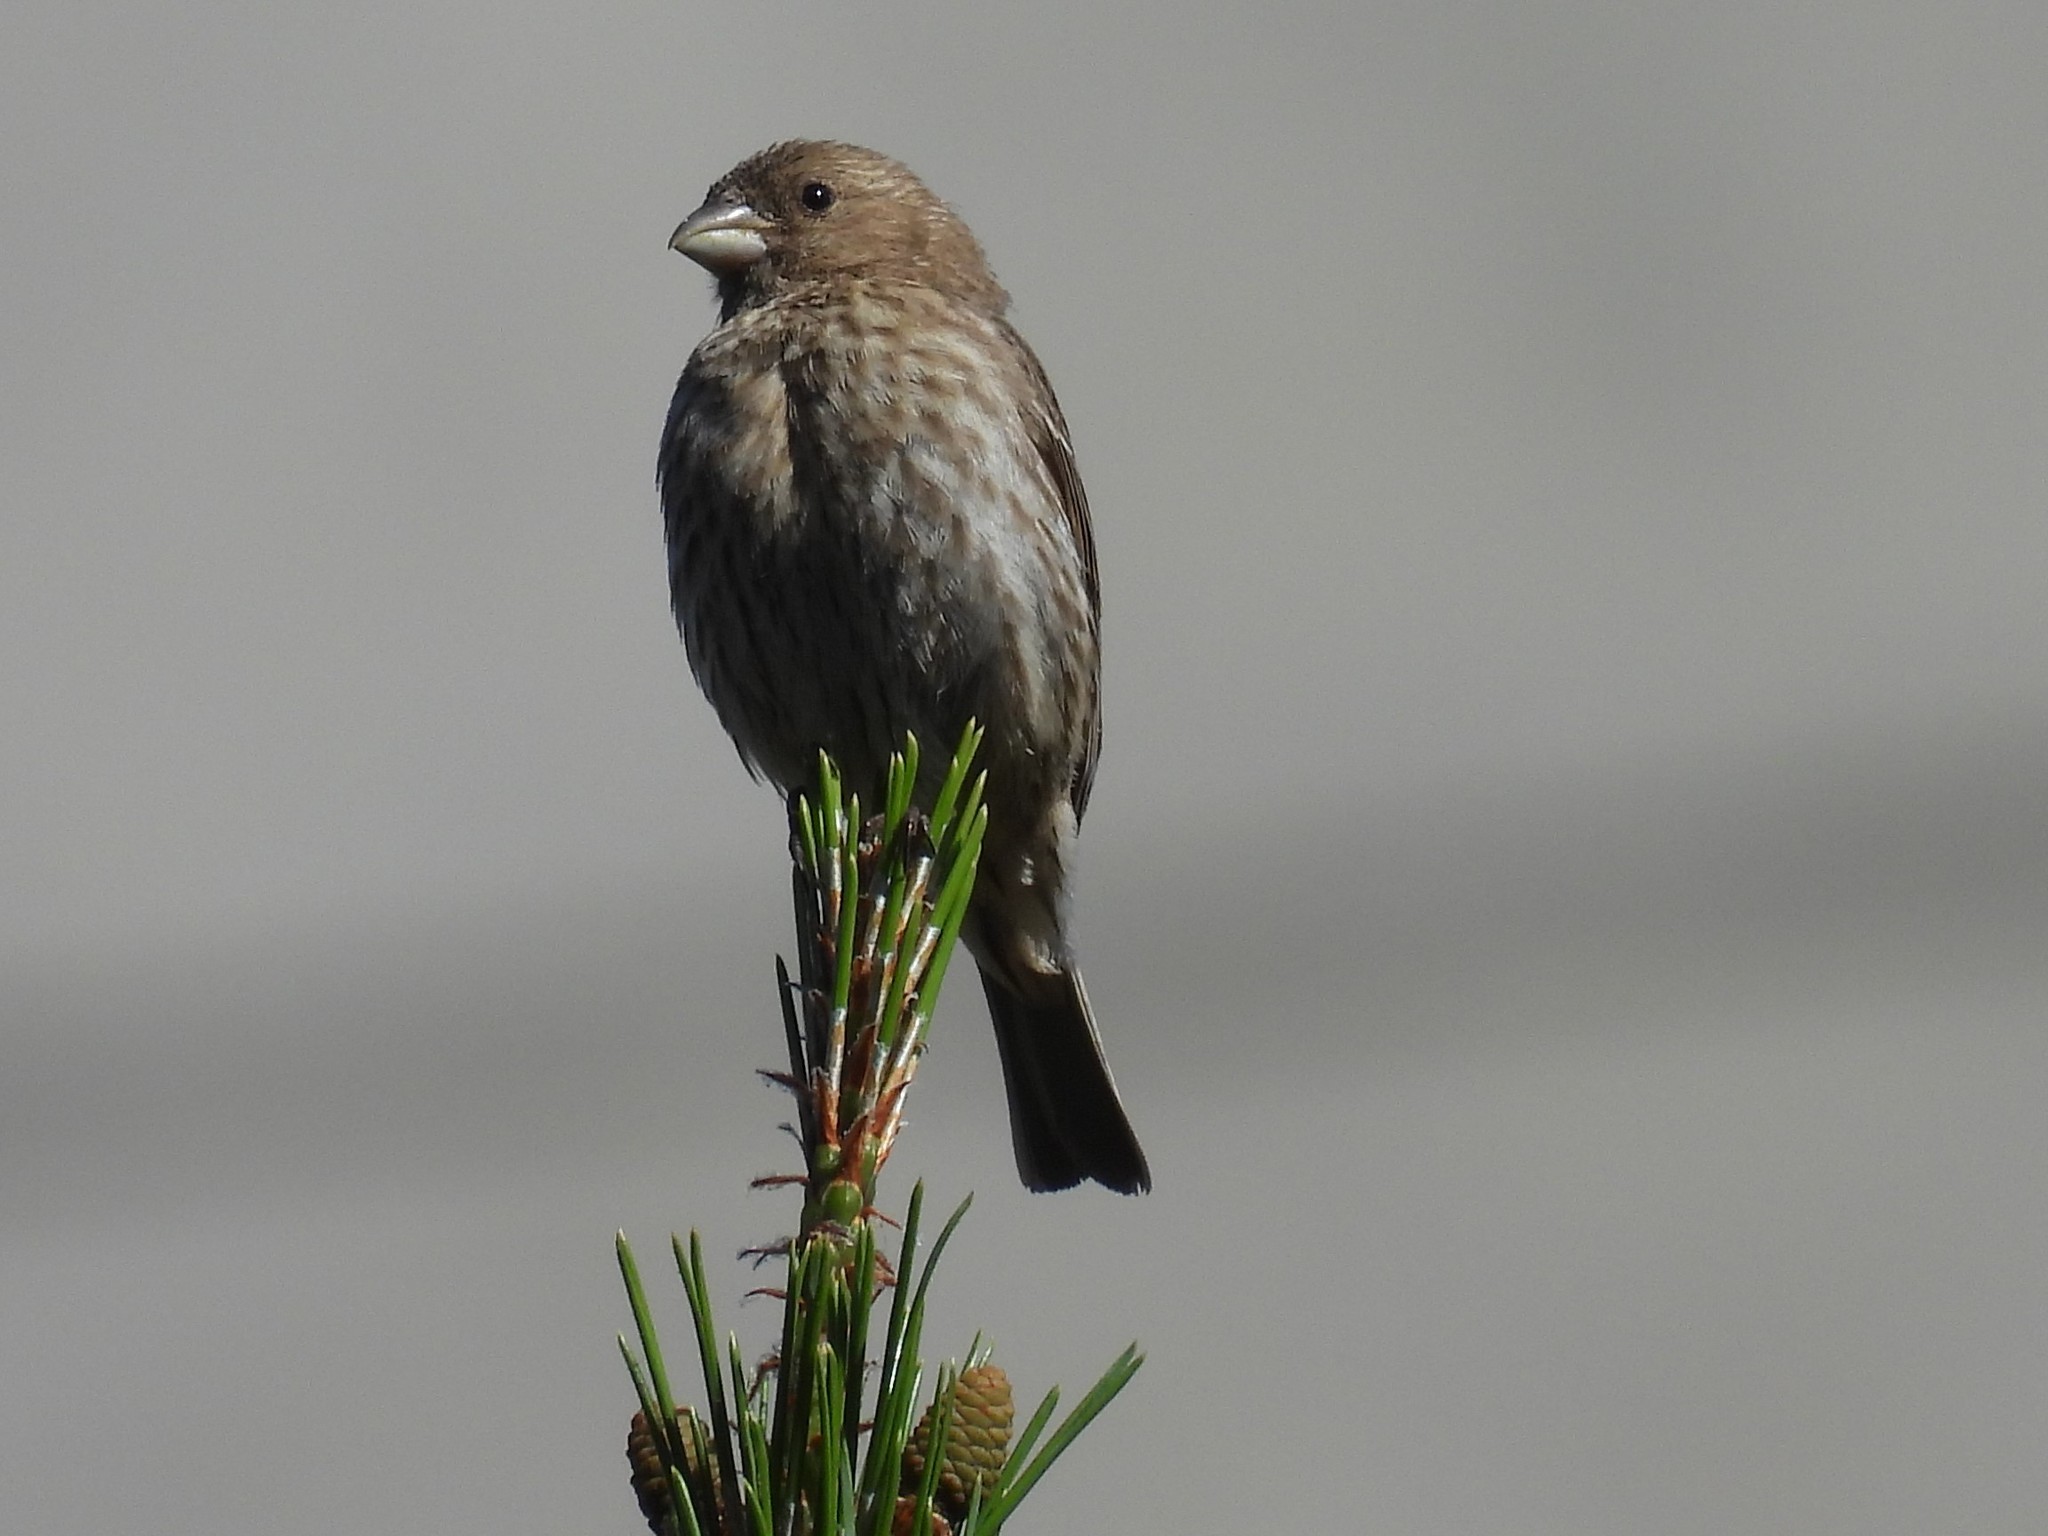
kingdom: Animalia
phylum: Chordata
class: Aves
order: Passeriformes
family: Fringillidae
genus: Haemorhous
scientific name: Haemorhous mexicanus
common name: House finch
